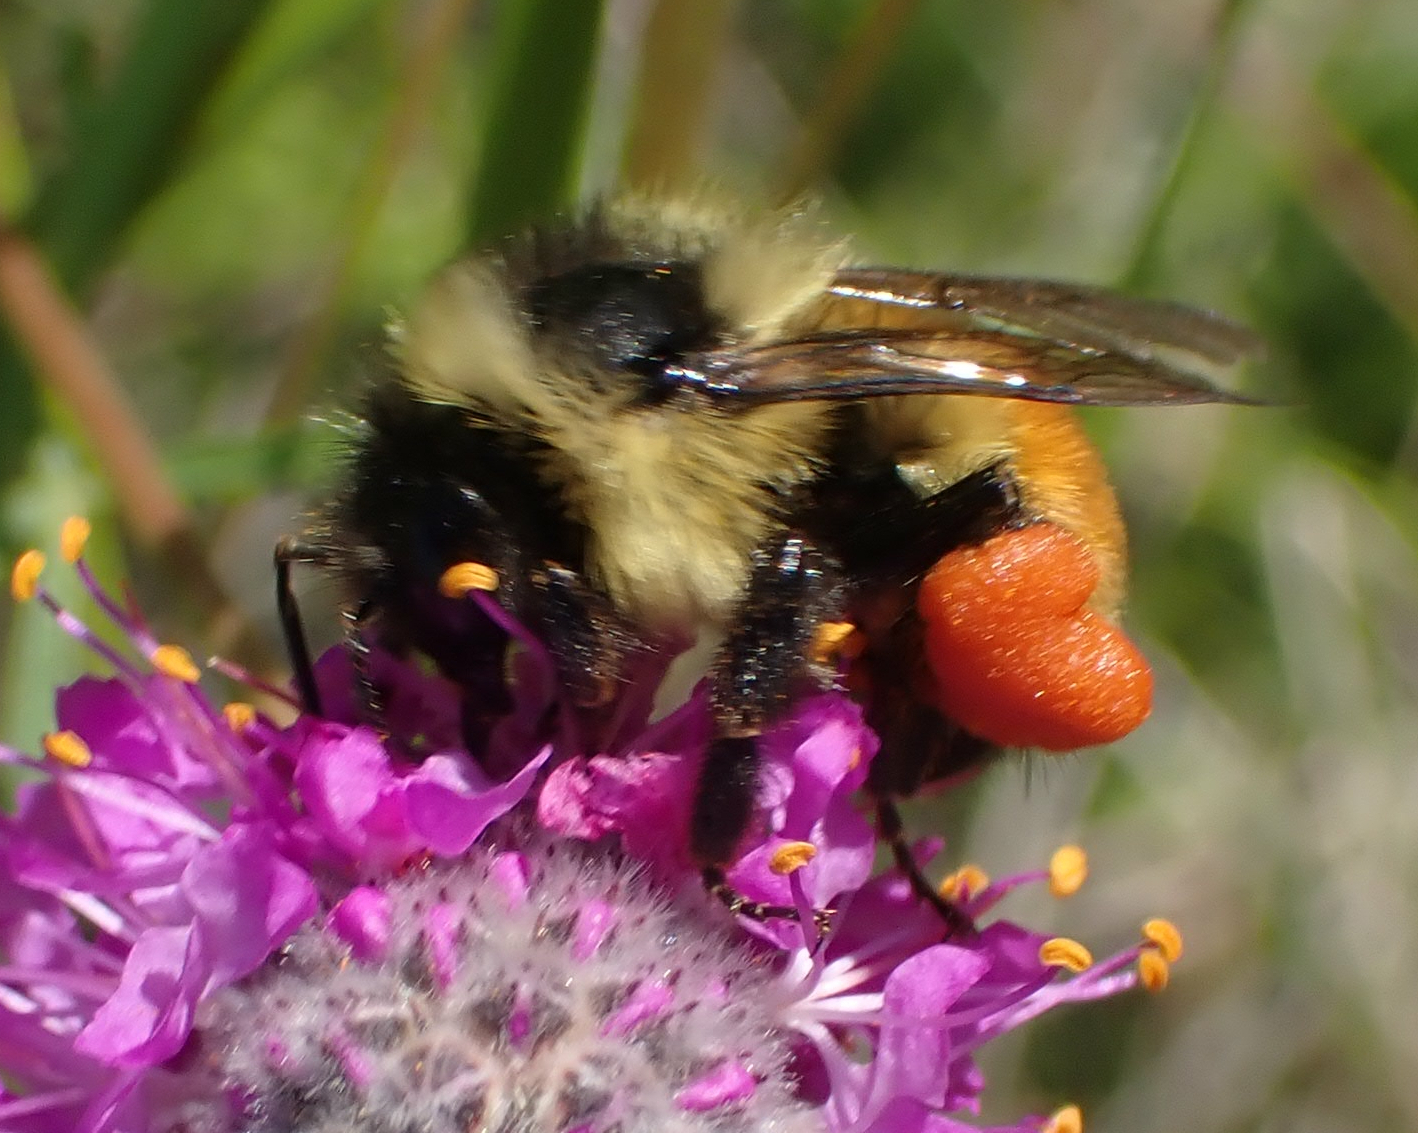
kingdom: Animalia
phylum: Arthropoda
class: Insecta
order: Hymenoptera
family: Apidae
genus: Bombus
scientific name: Bombus ternarius
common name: Tri-colored bumble bee
